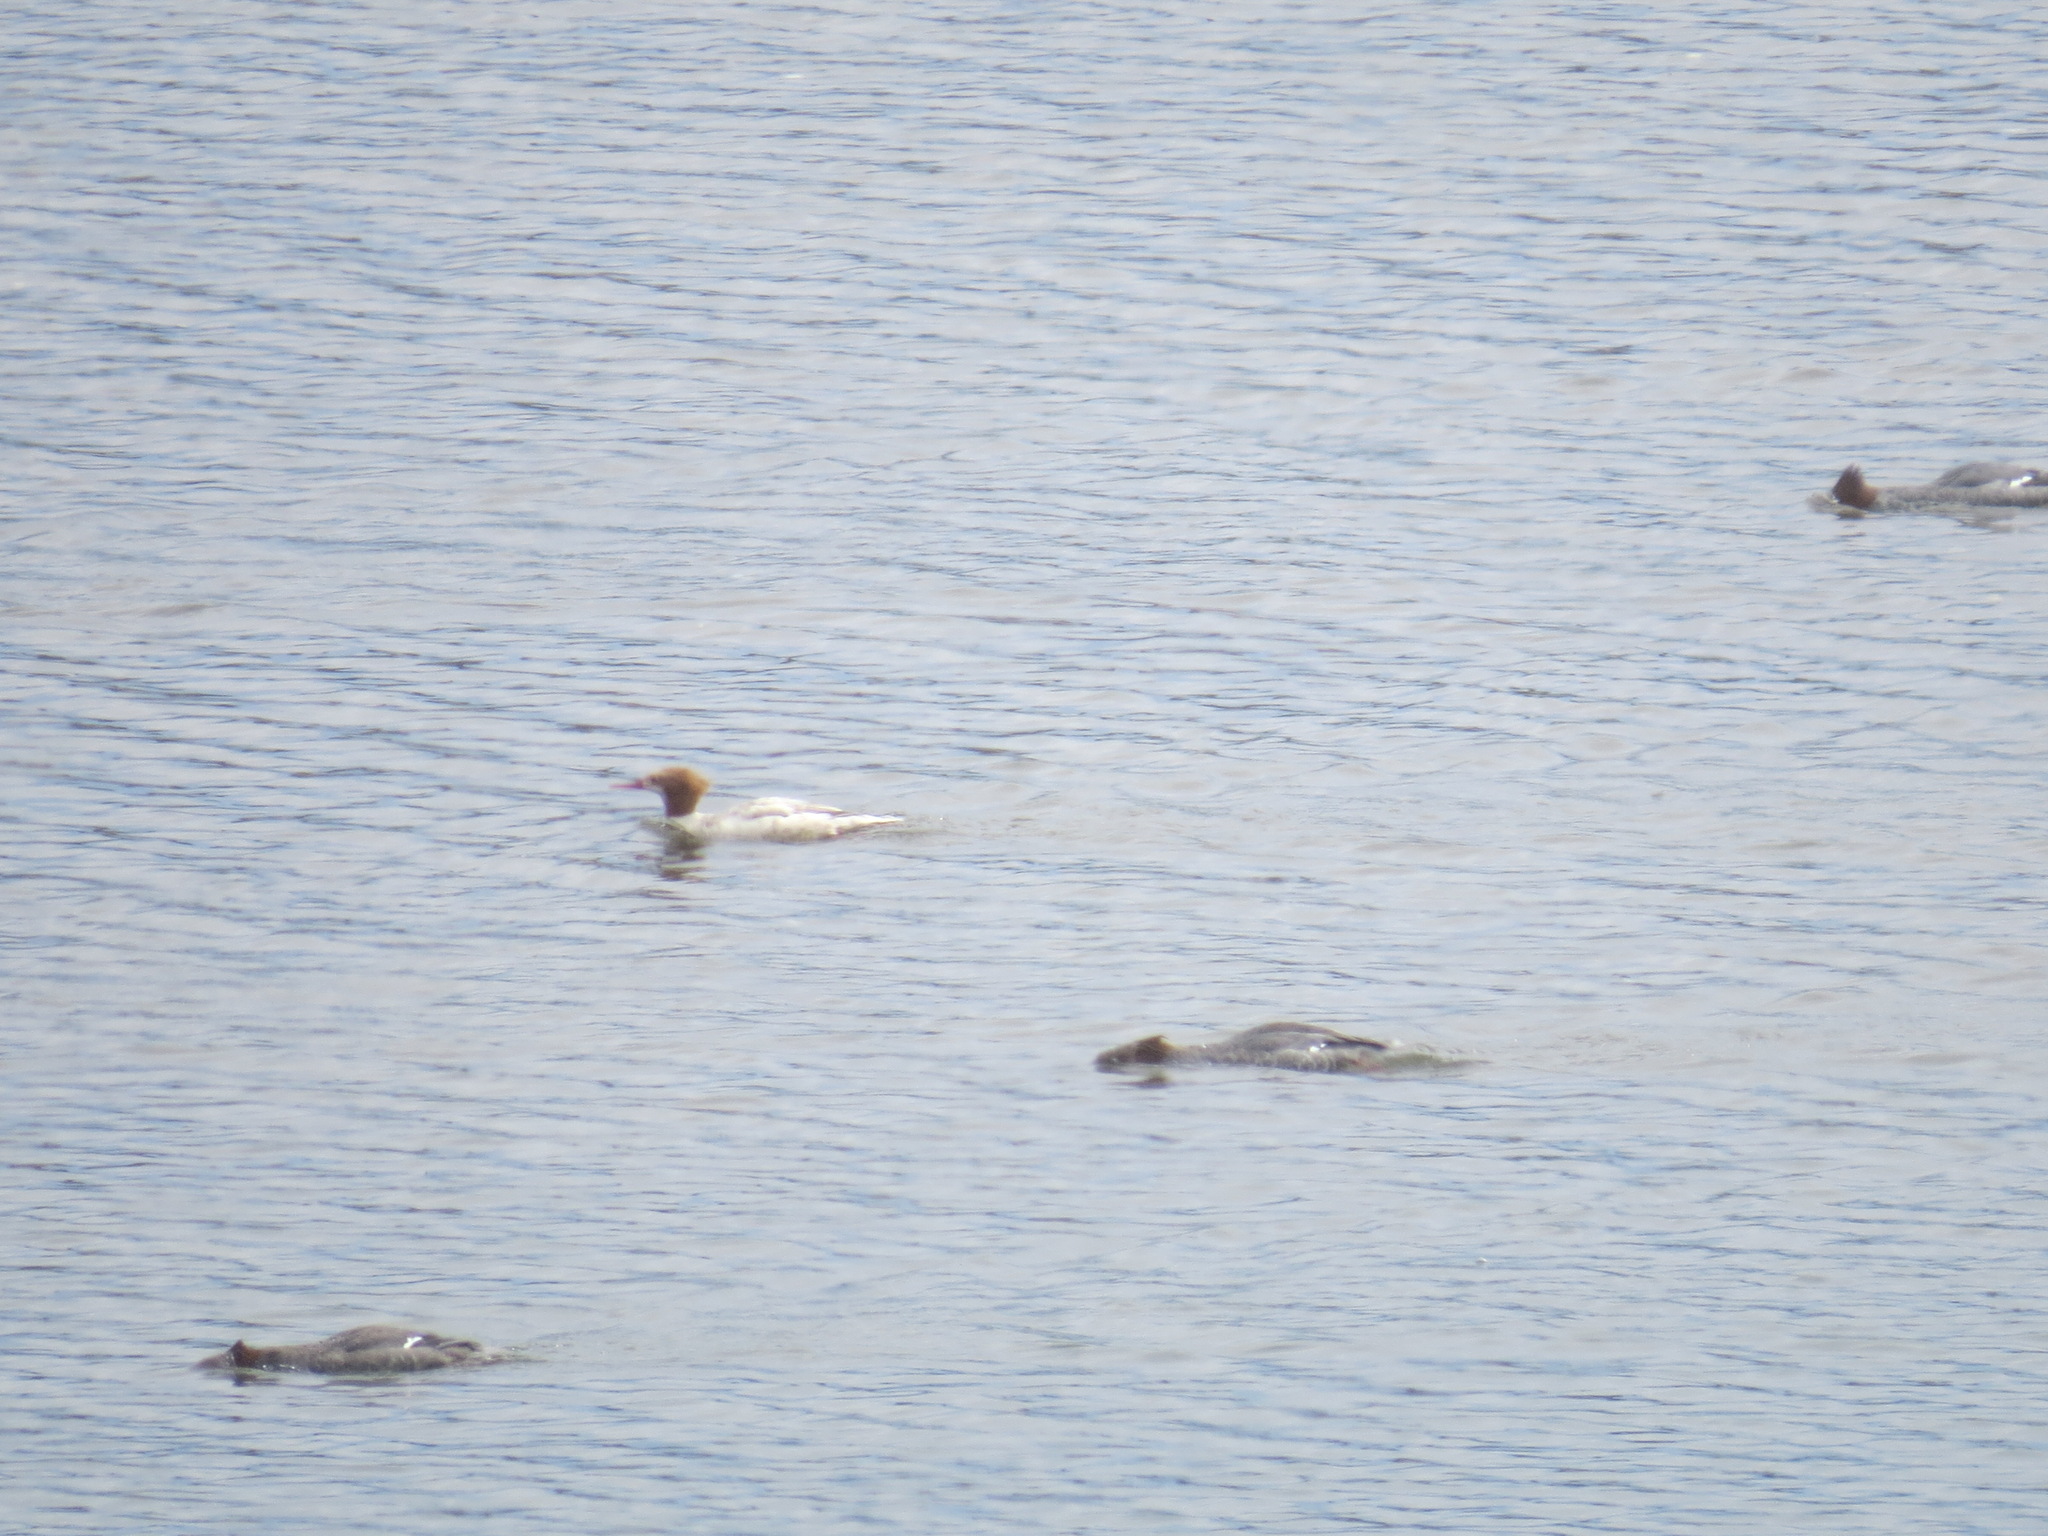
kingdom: Animalia
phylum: Chordata
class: Aves
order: Anseriformes
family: Anatidae
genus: Mergus
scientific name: Mergus merganser
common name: Common merganser
